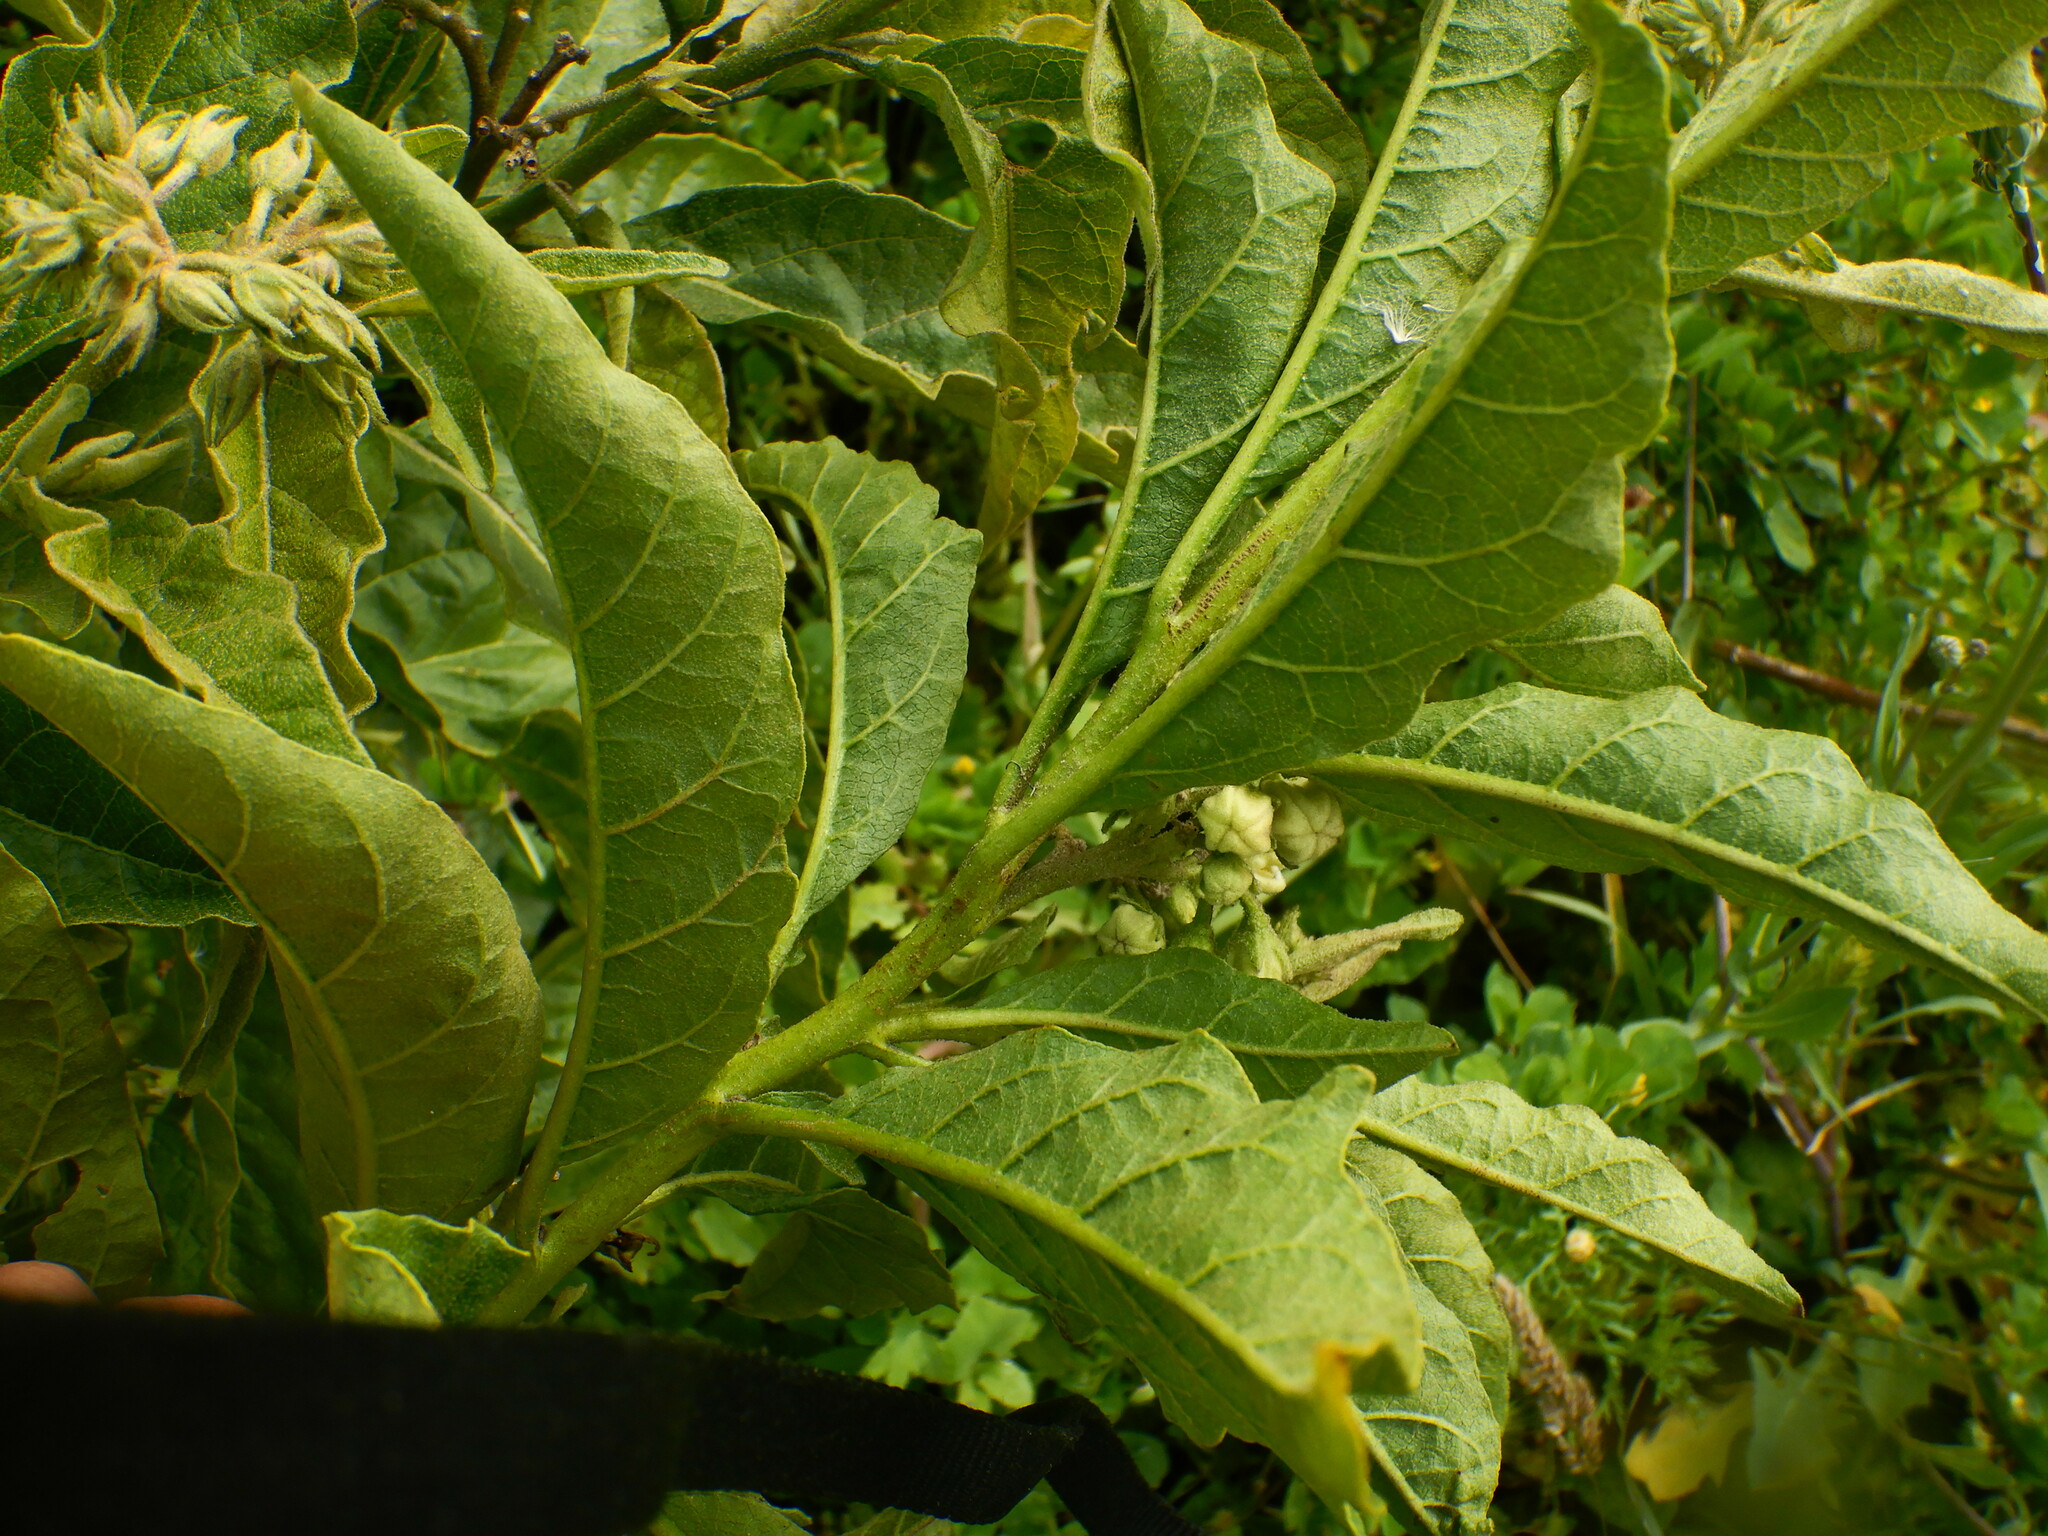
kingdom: Plantae
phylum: Tracheophyta
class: Magnoliopsida
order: Solanales
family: Solanaceae
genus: Solanum
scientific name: Solanum bonariense
